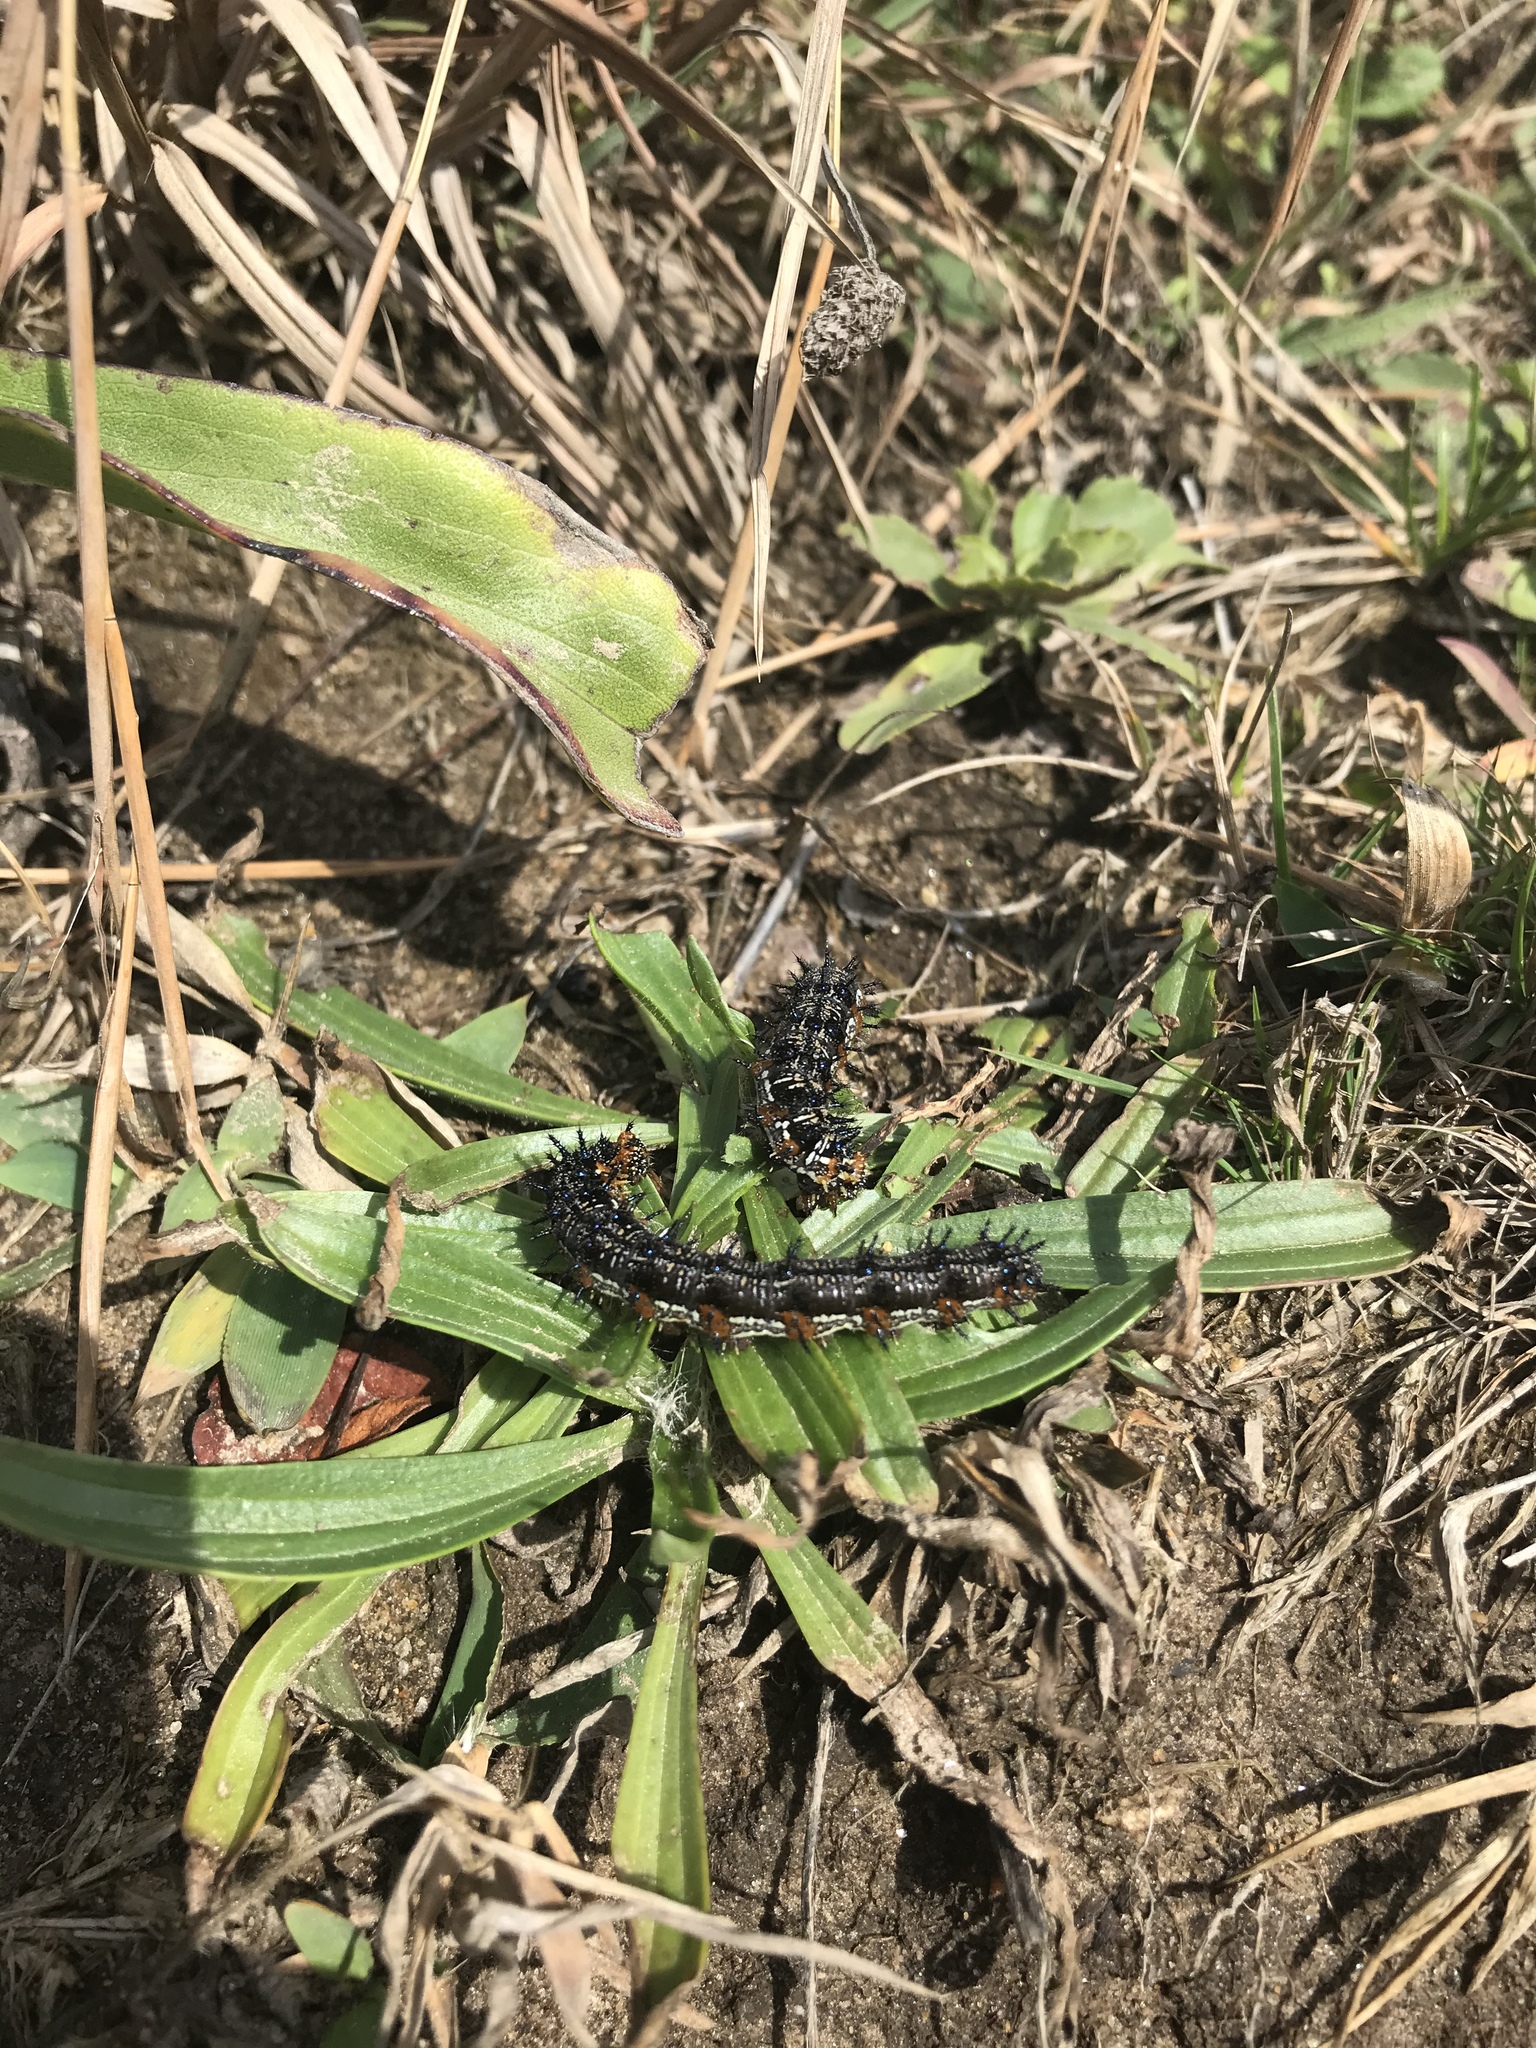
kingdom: Animalia
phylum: Arthropoda
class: Insecta
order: Lepidoptera
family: Nymphalidae
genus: Junonia
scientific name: Junonia coenia
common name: Common buckeye
